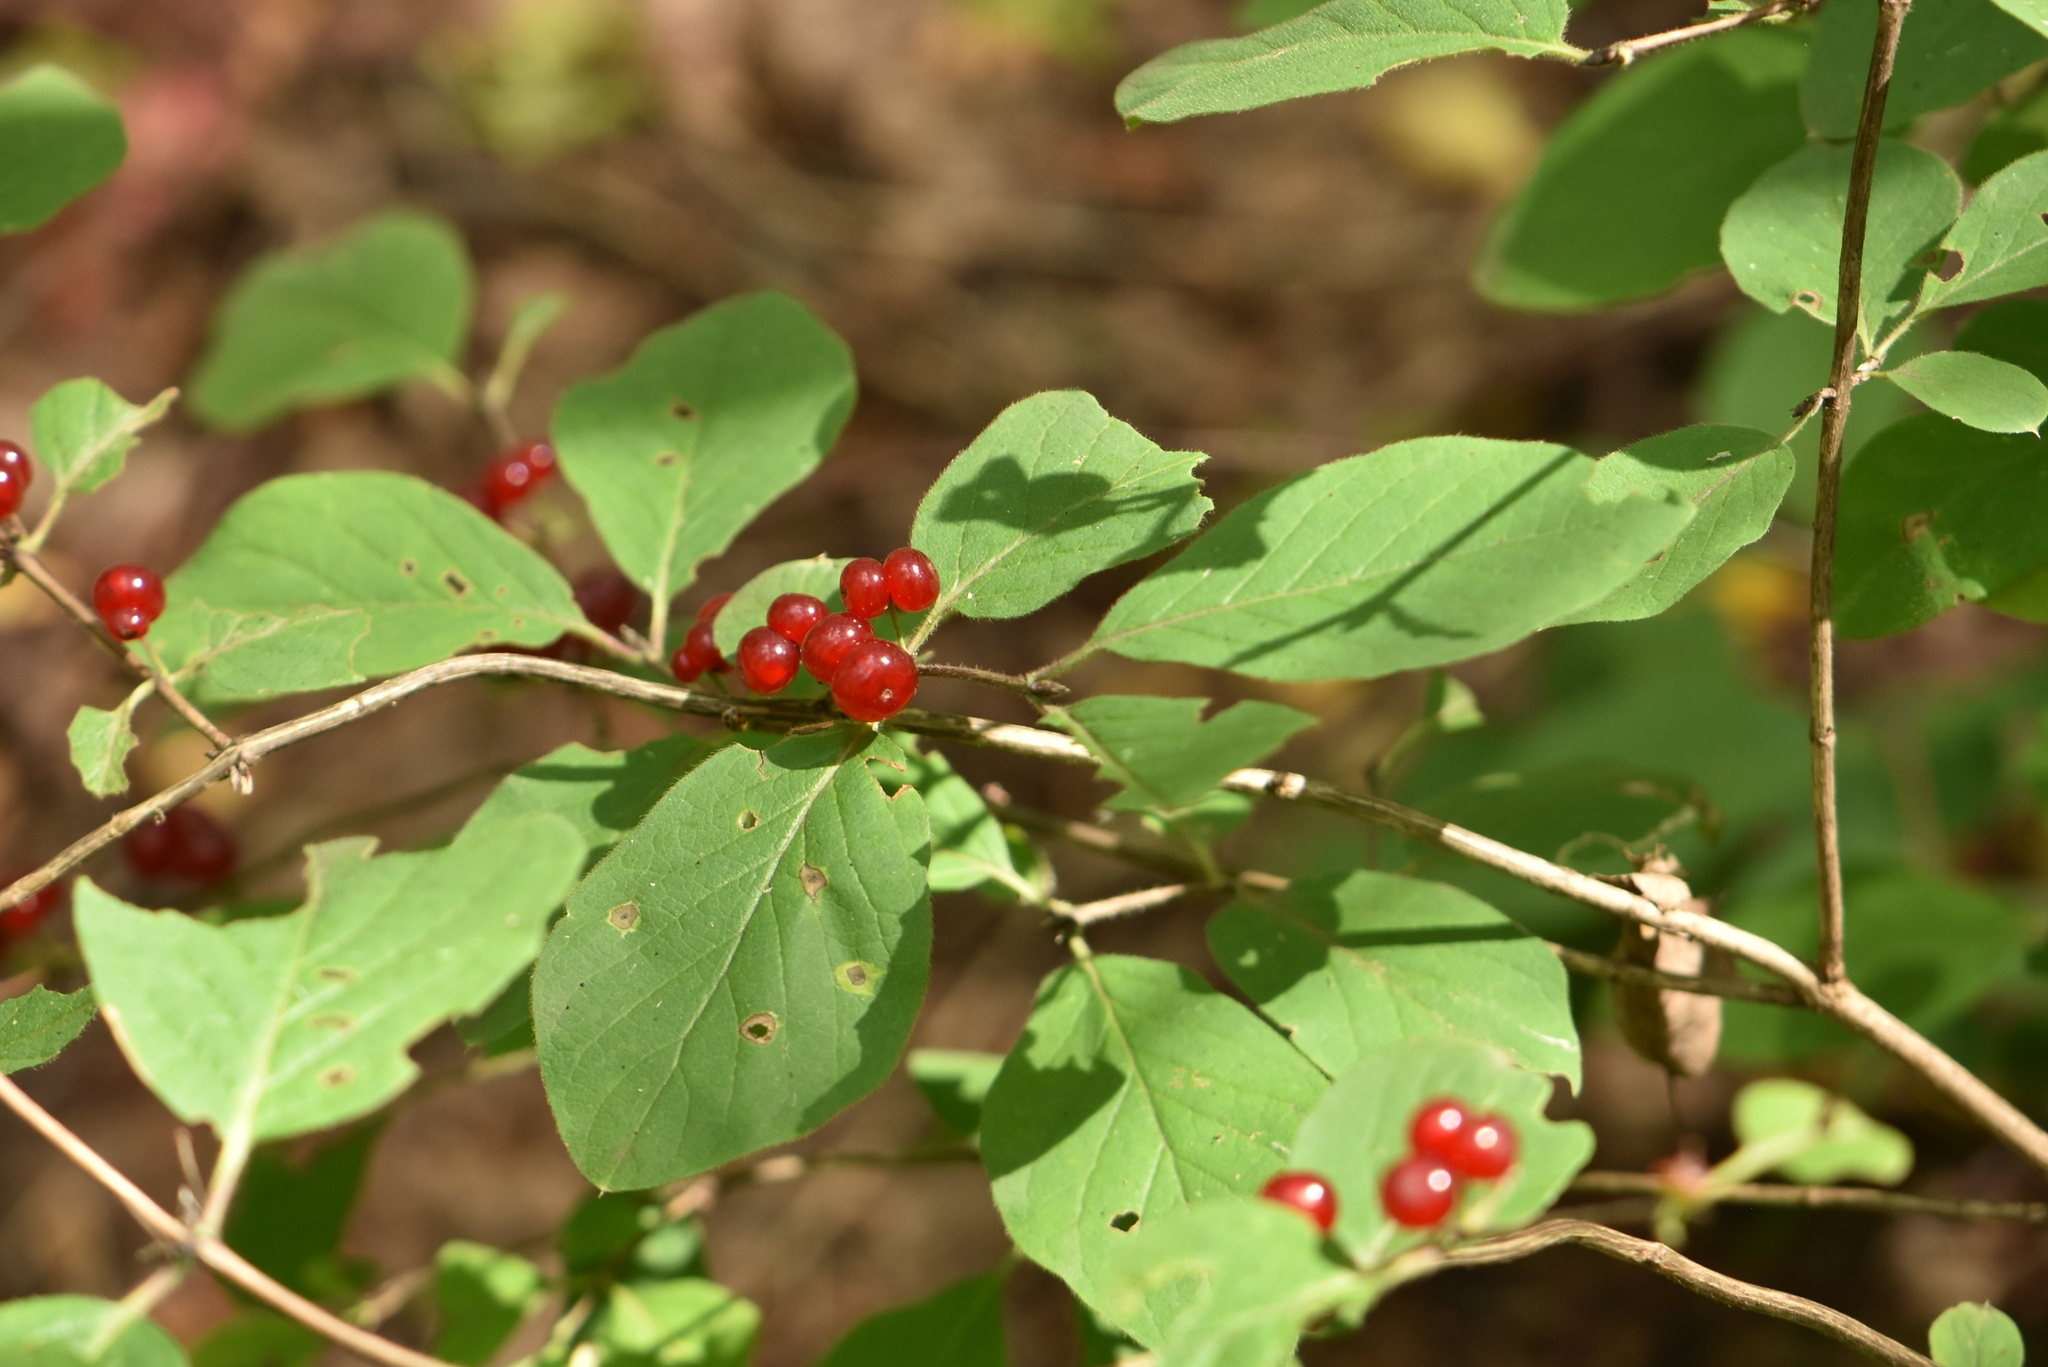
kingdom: Plantae
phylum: Tracheophyta
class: Magnoliopsida
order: Dipsacales
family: Caprifoliaceae
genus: Lonicera
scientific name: Lonicera xylosteum
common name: Fly honeysuckle
